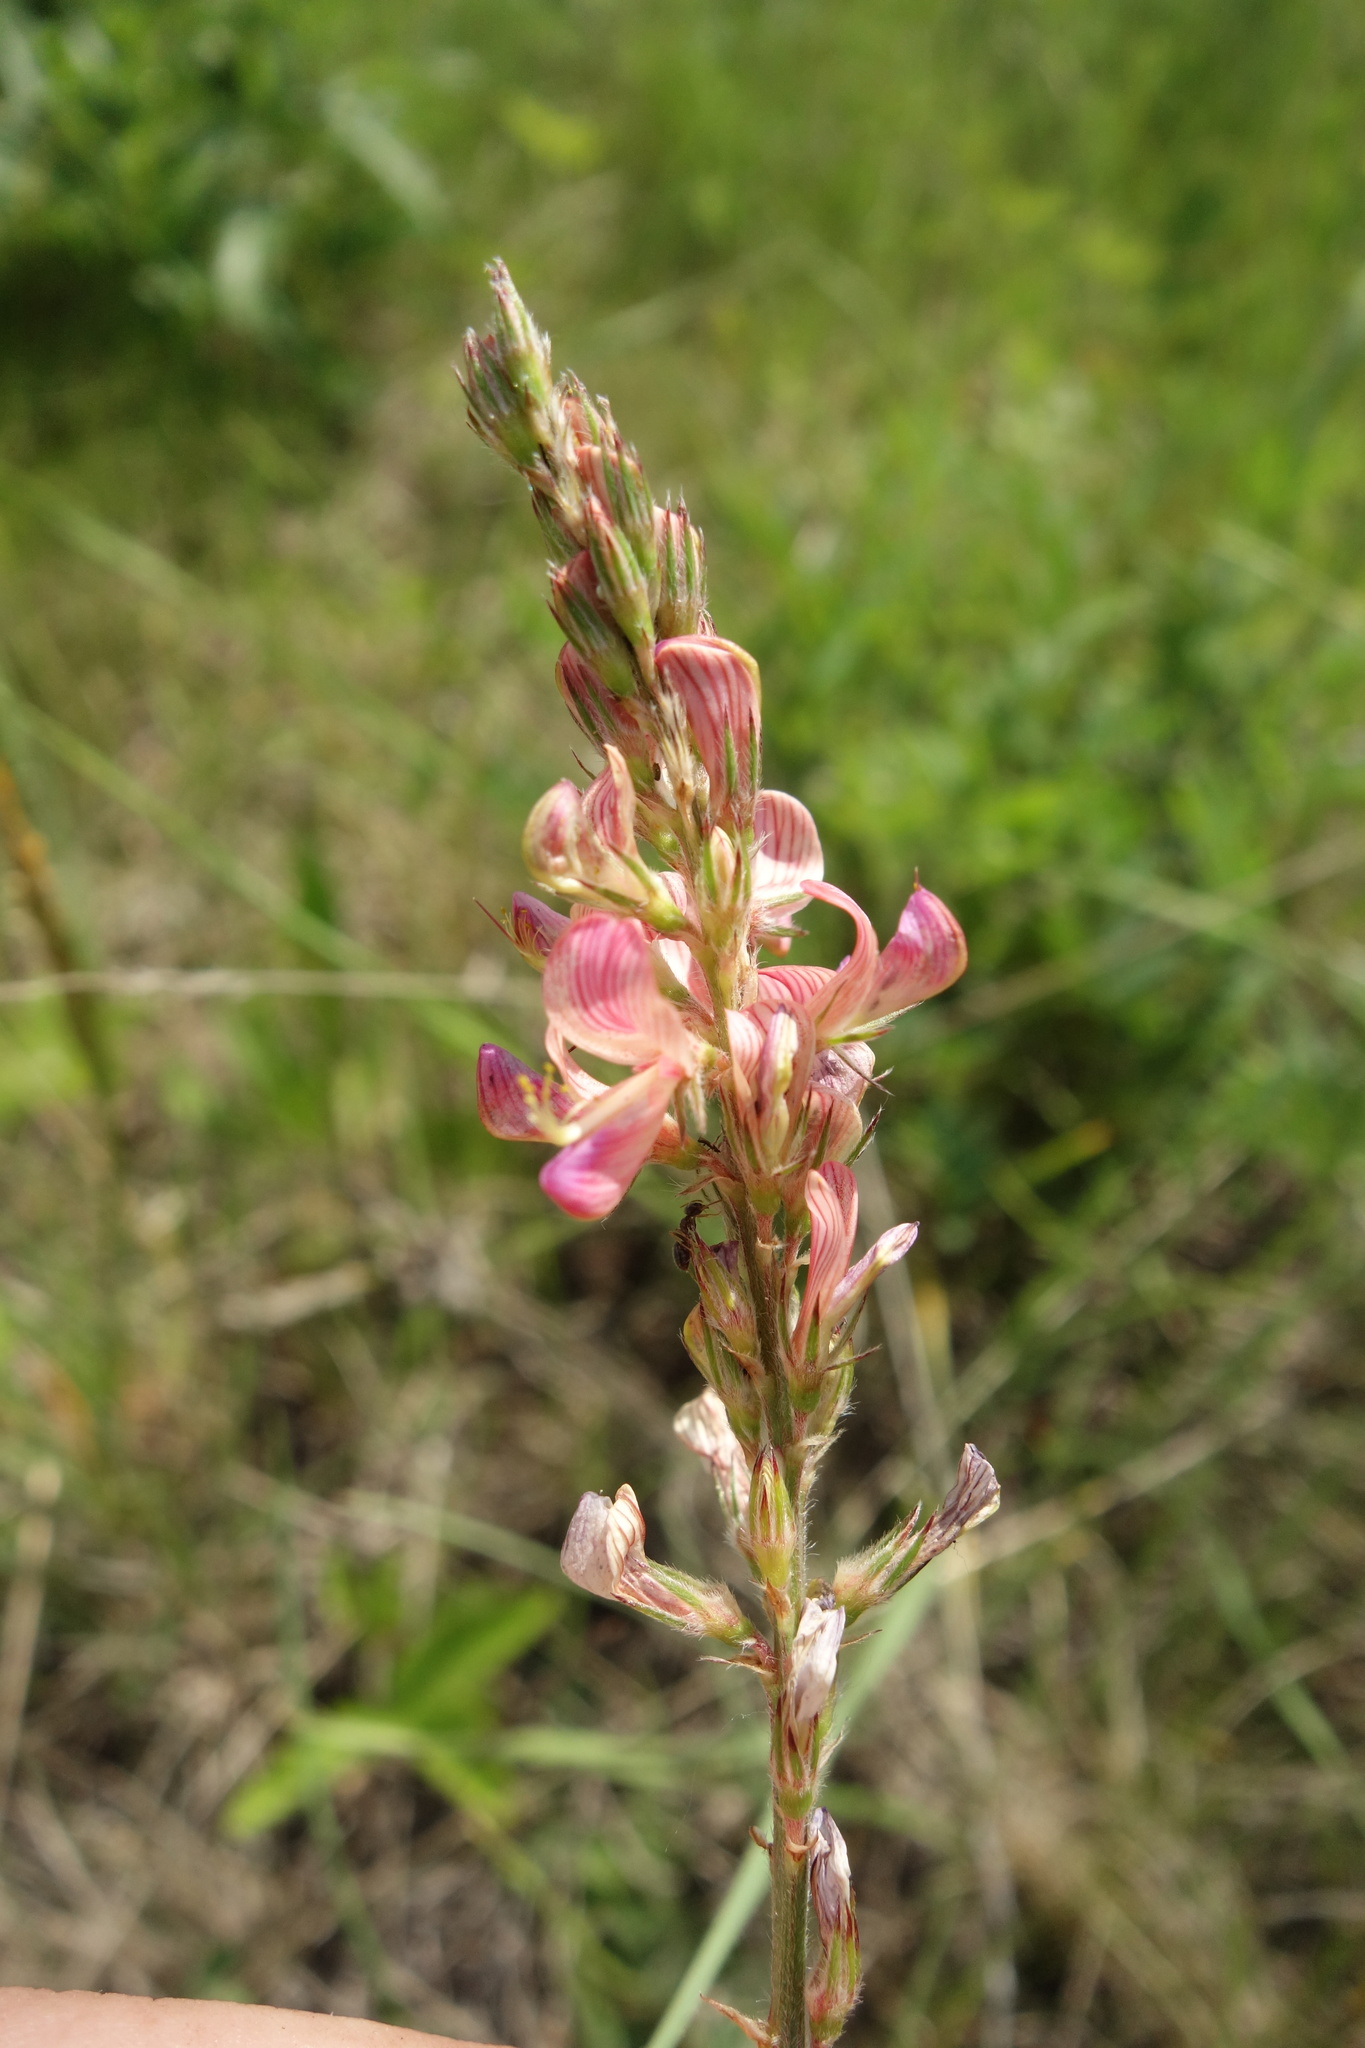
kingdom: Plantae
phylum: Tracheophyta
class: Magnoliopsida
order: Fabales
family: Fabaceae
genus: Onobrychis
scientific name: Onobrychis viciifolia
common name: Sainfoin
